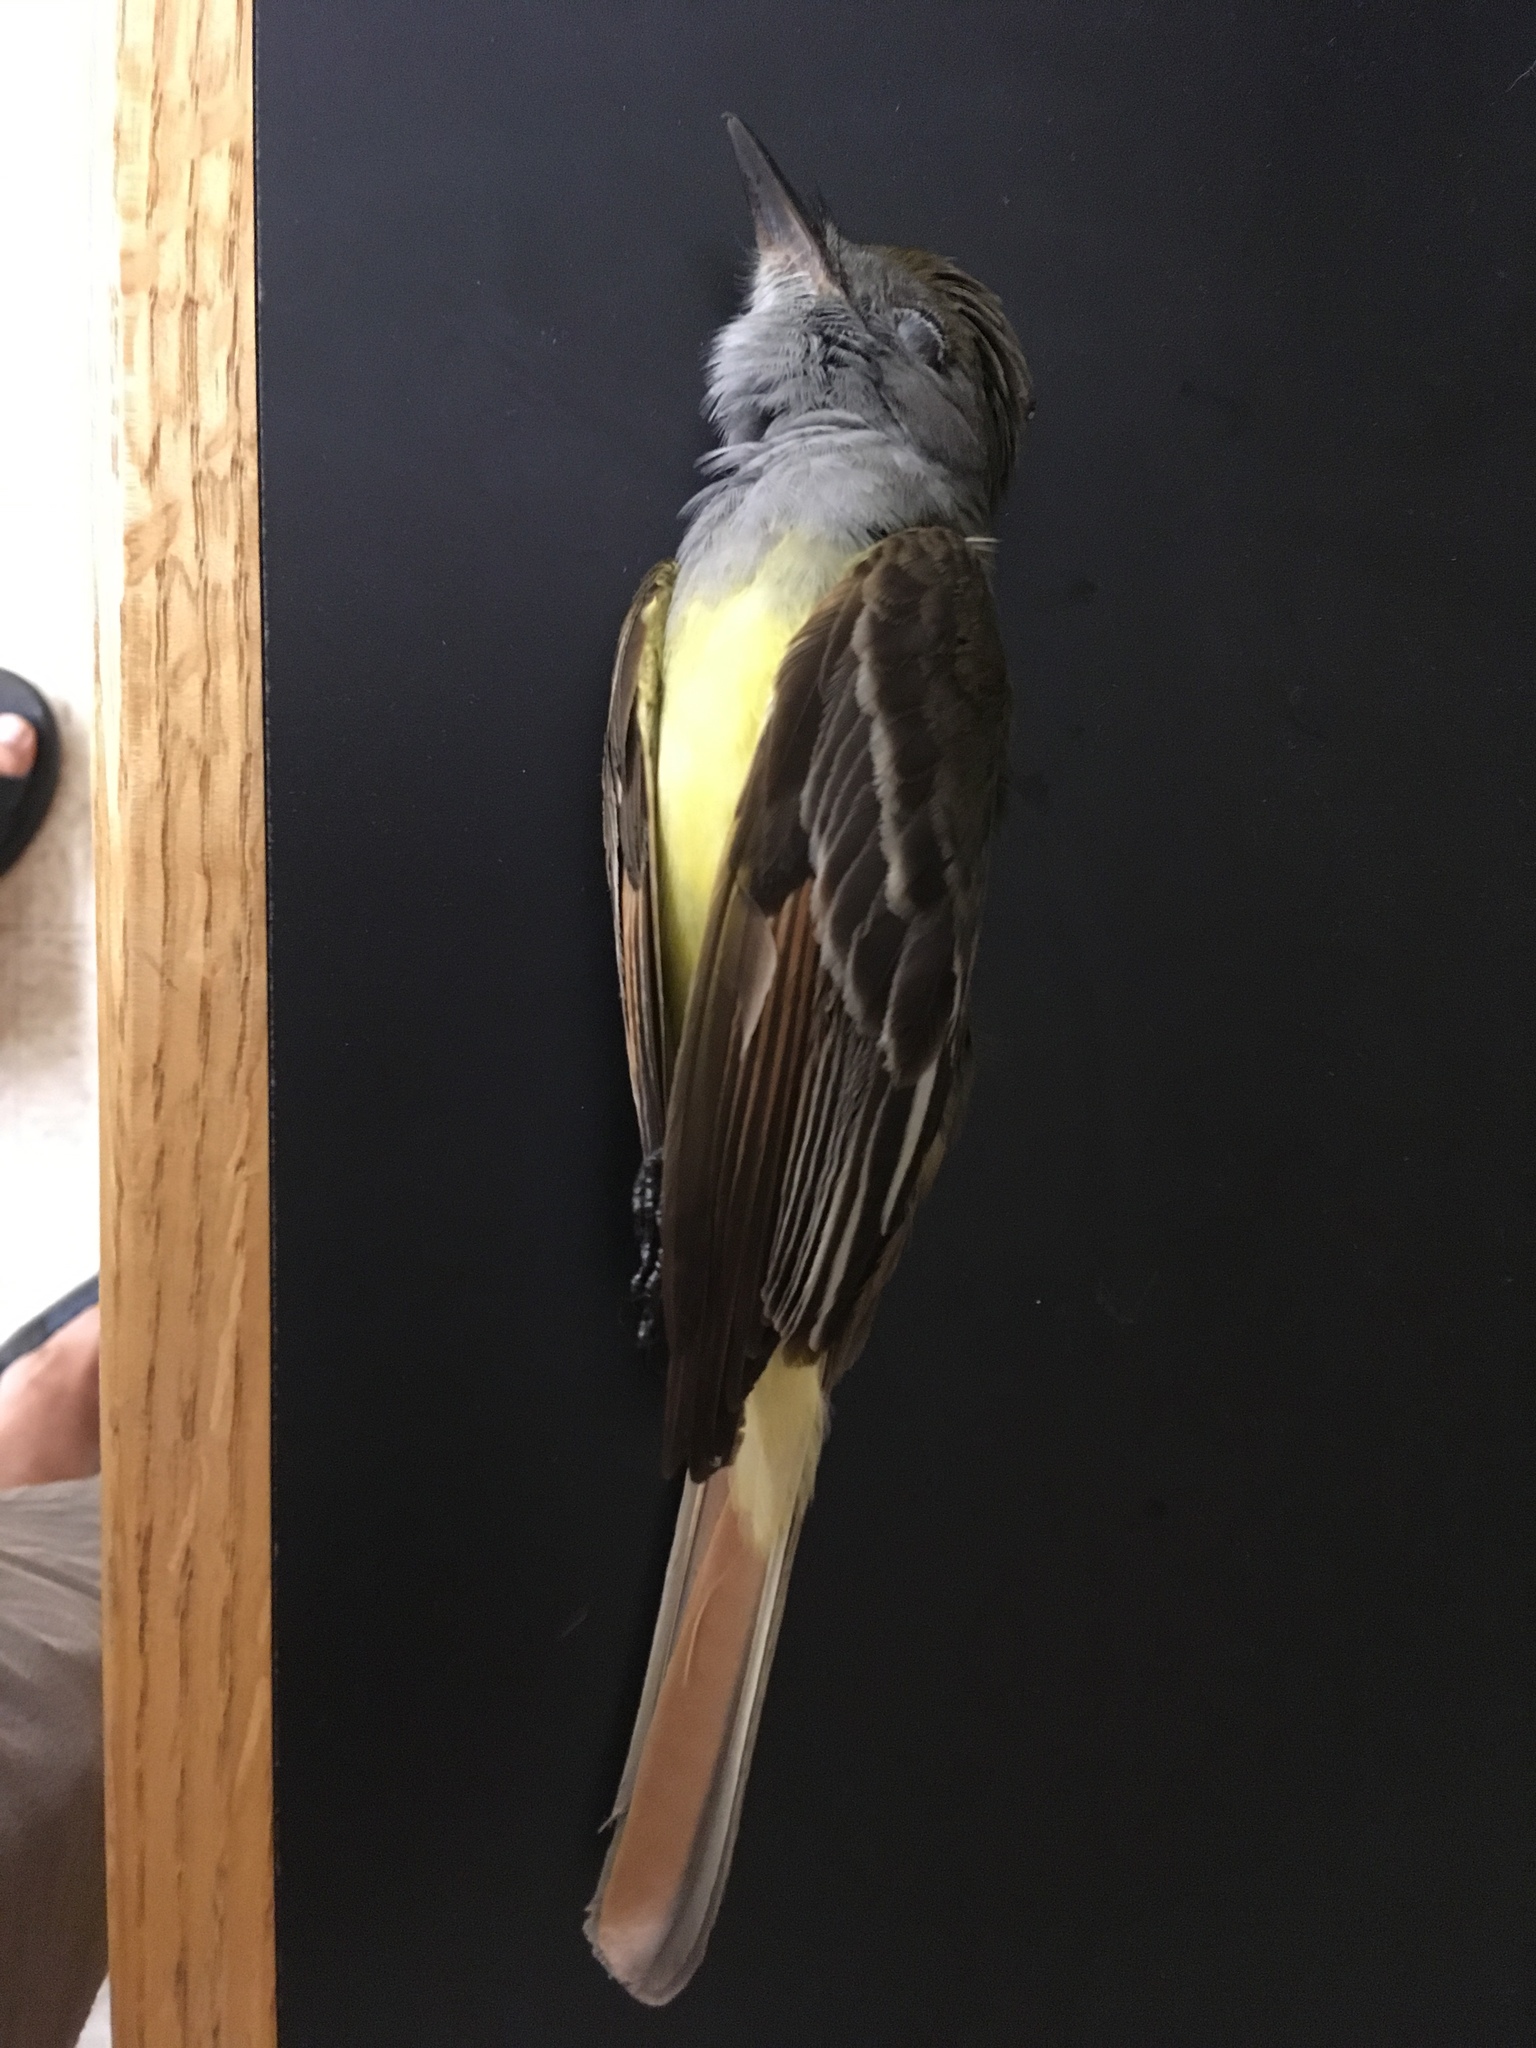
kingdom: Animalia
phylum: Chordata
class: Aves
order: Passeriformes
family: Tyrannidae
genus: Myiarchus
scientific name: Myiarchus crinitus
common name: Great crested flycatcher
